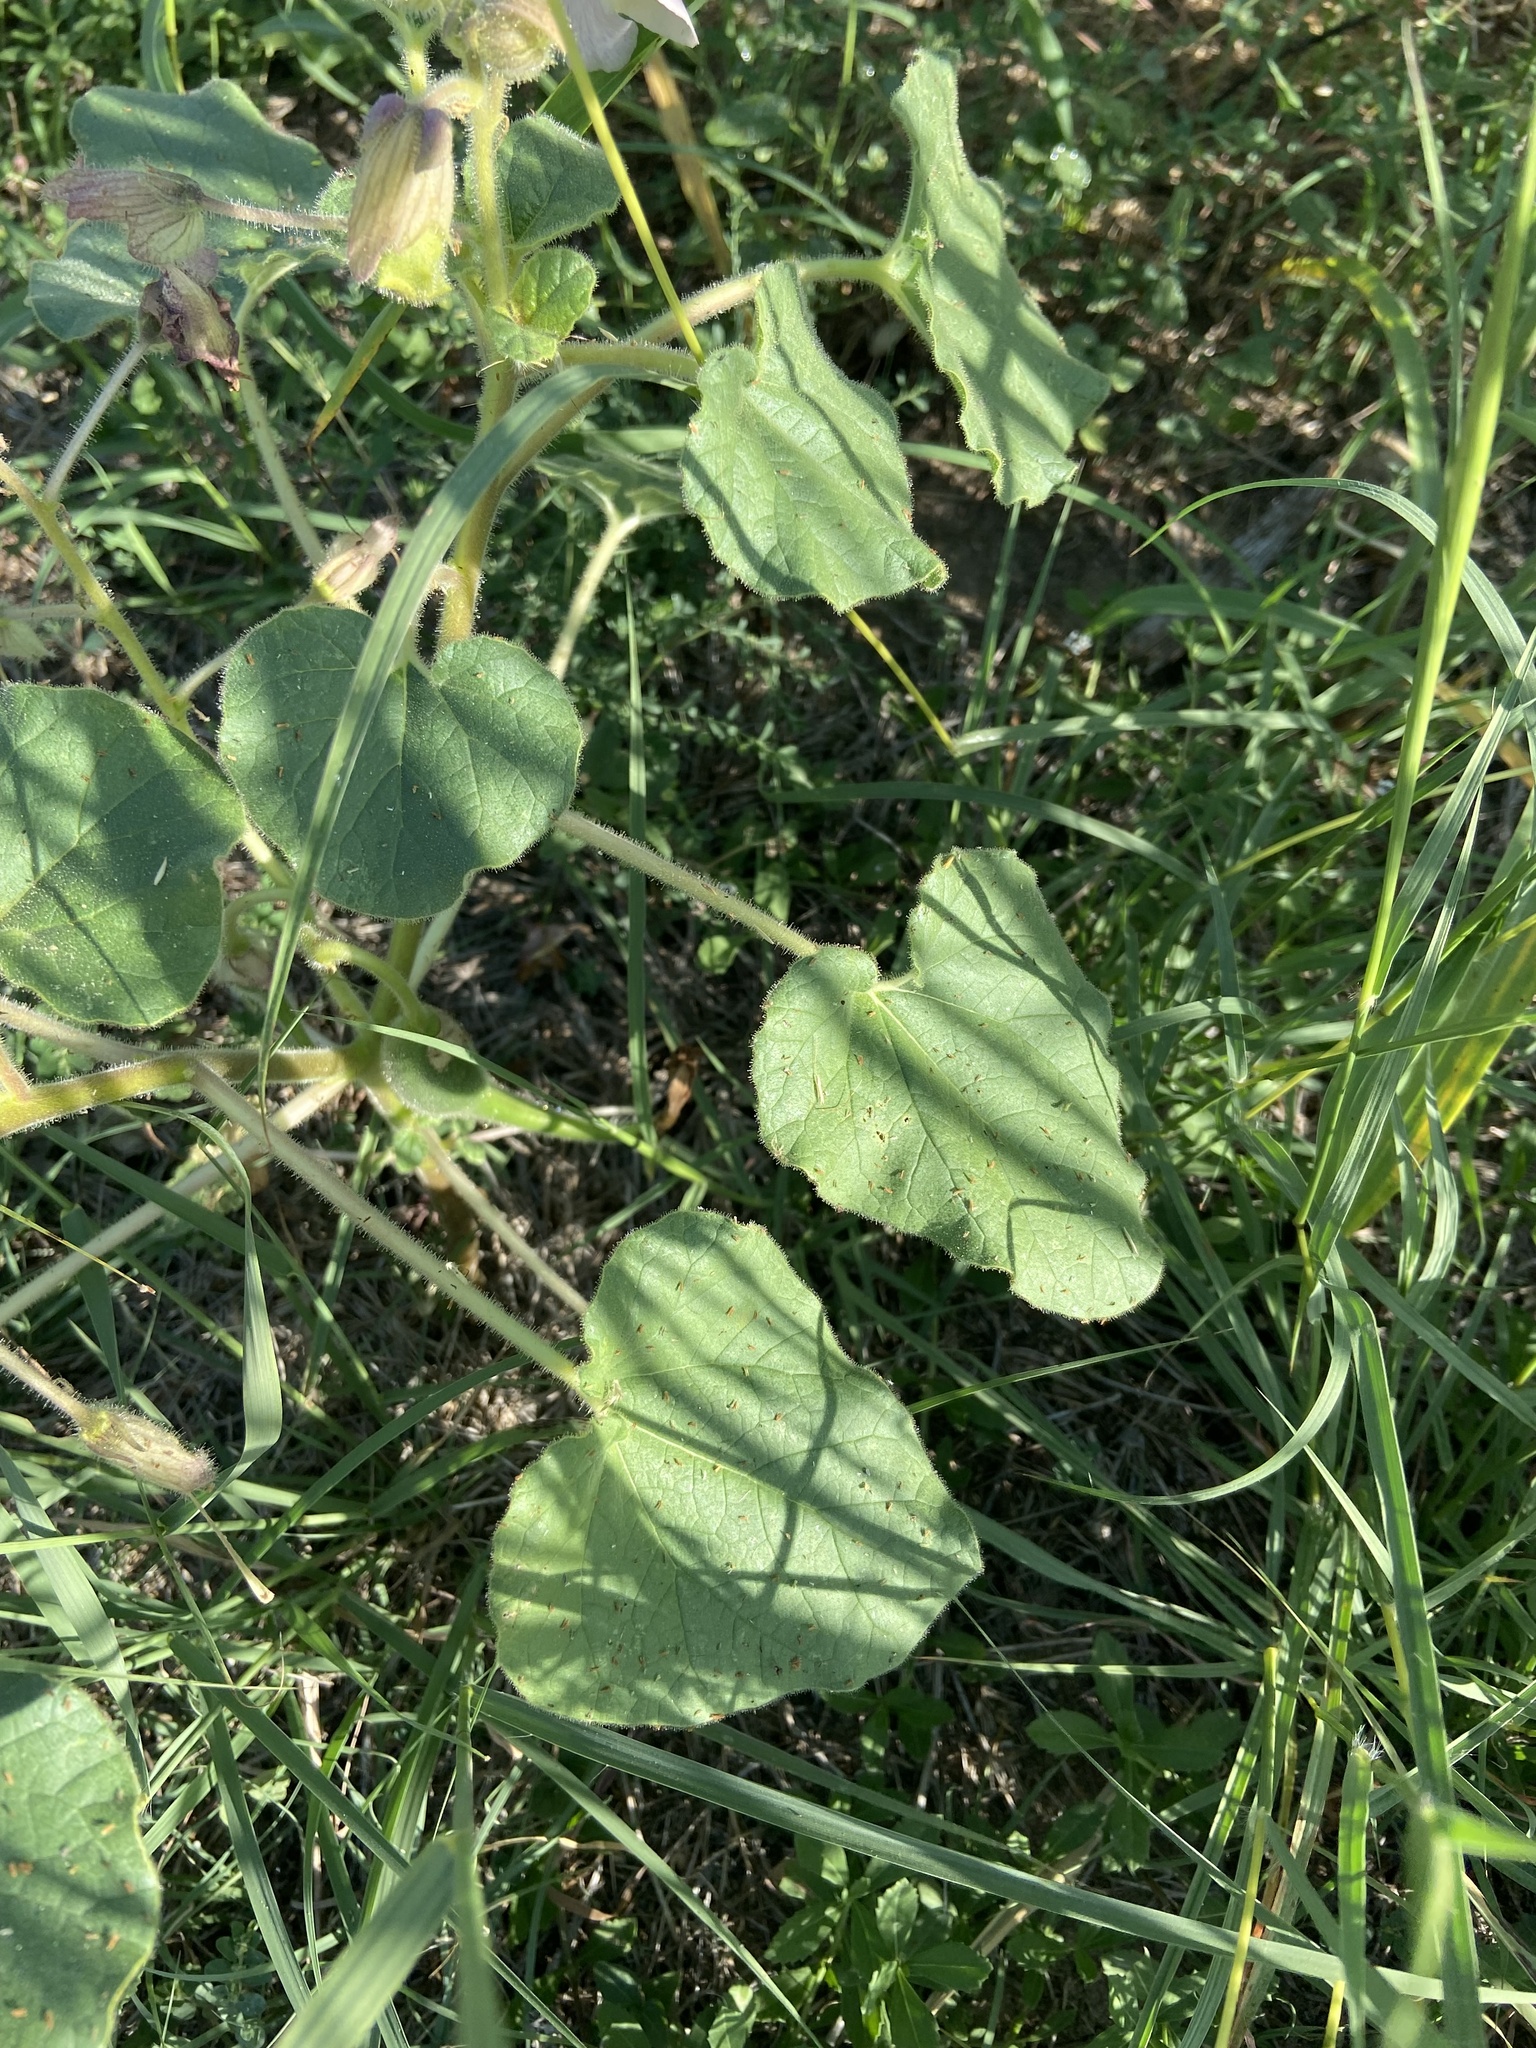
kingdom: Plantae
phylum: Tracheophyta
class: Magnoliopsida
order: Lamiales
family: Martyniaceae
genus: Proboscidea
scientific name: Proboscidea louisianica
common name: Elephant tusks
